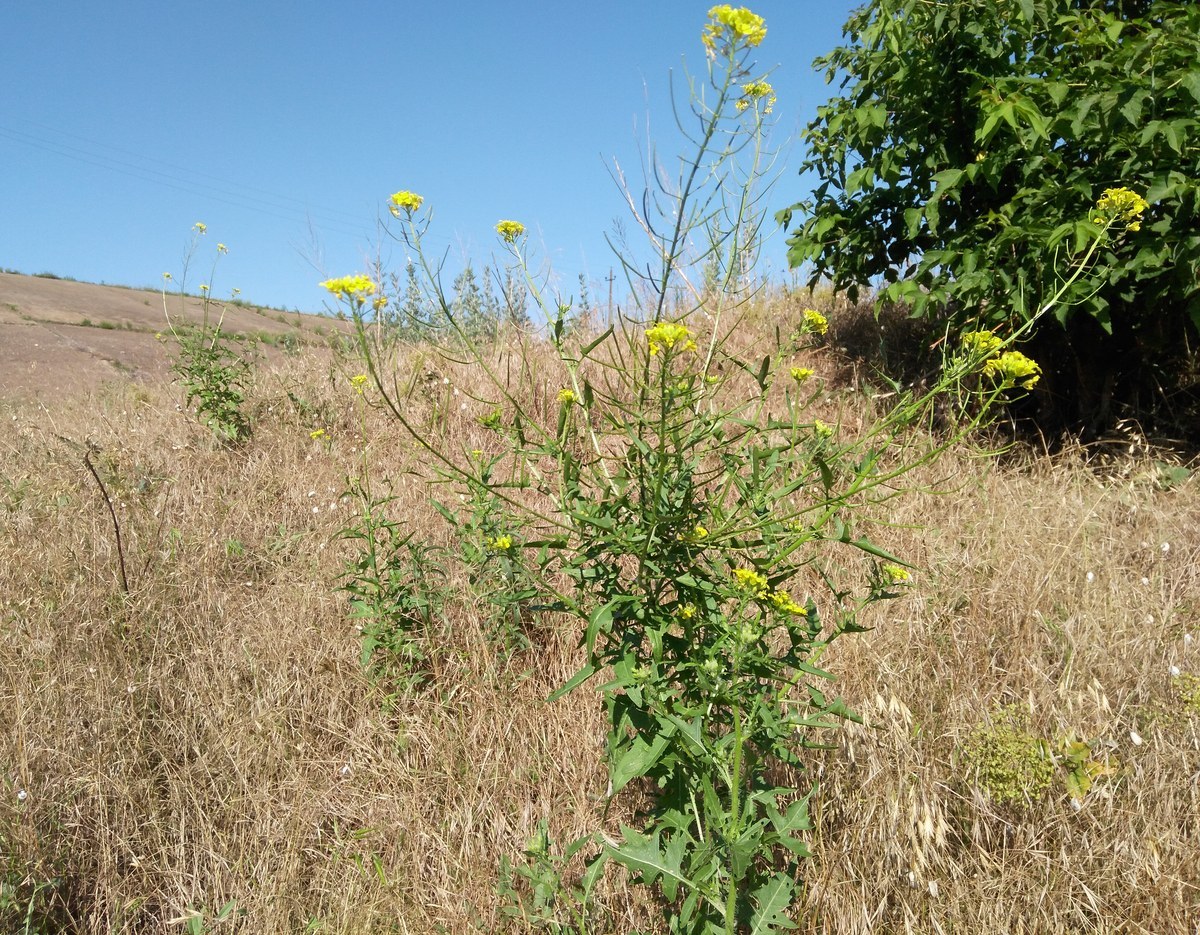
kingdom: Plantae
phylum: Tracheophyta
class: Magnoliopsida
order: Brassicales
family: Brassicaceae
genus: Sisymbrium
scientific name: Sisymbrium loeselii
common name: False london-rocket
